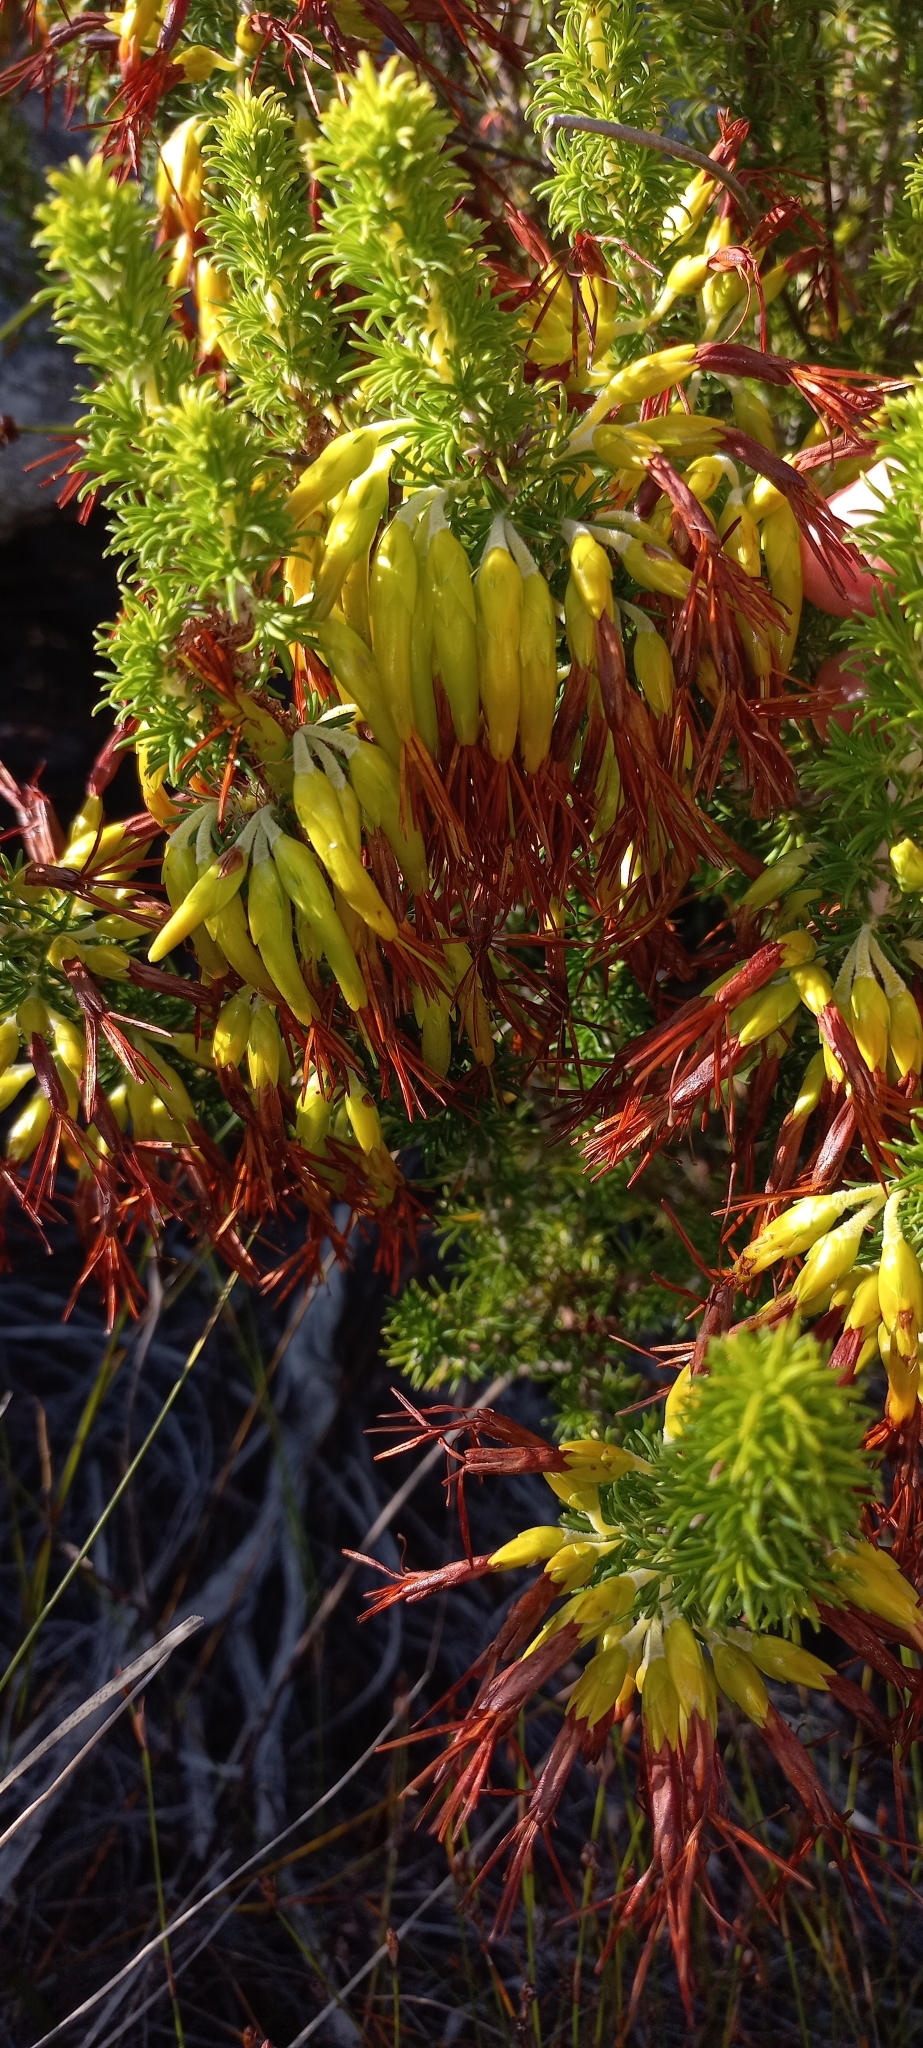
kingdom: Plantae
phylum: Tracheophyta
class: Magnoliopsida
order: Ericales
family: Ericaceae
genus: Erica
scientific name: Erica coccinea
